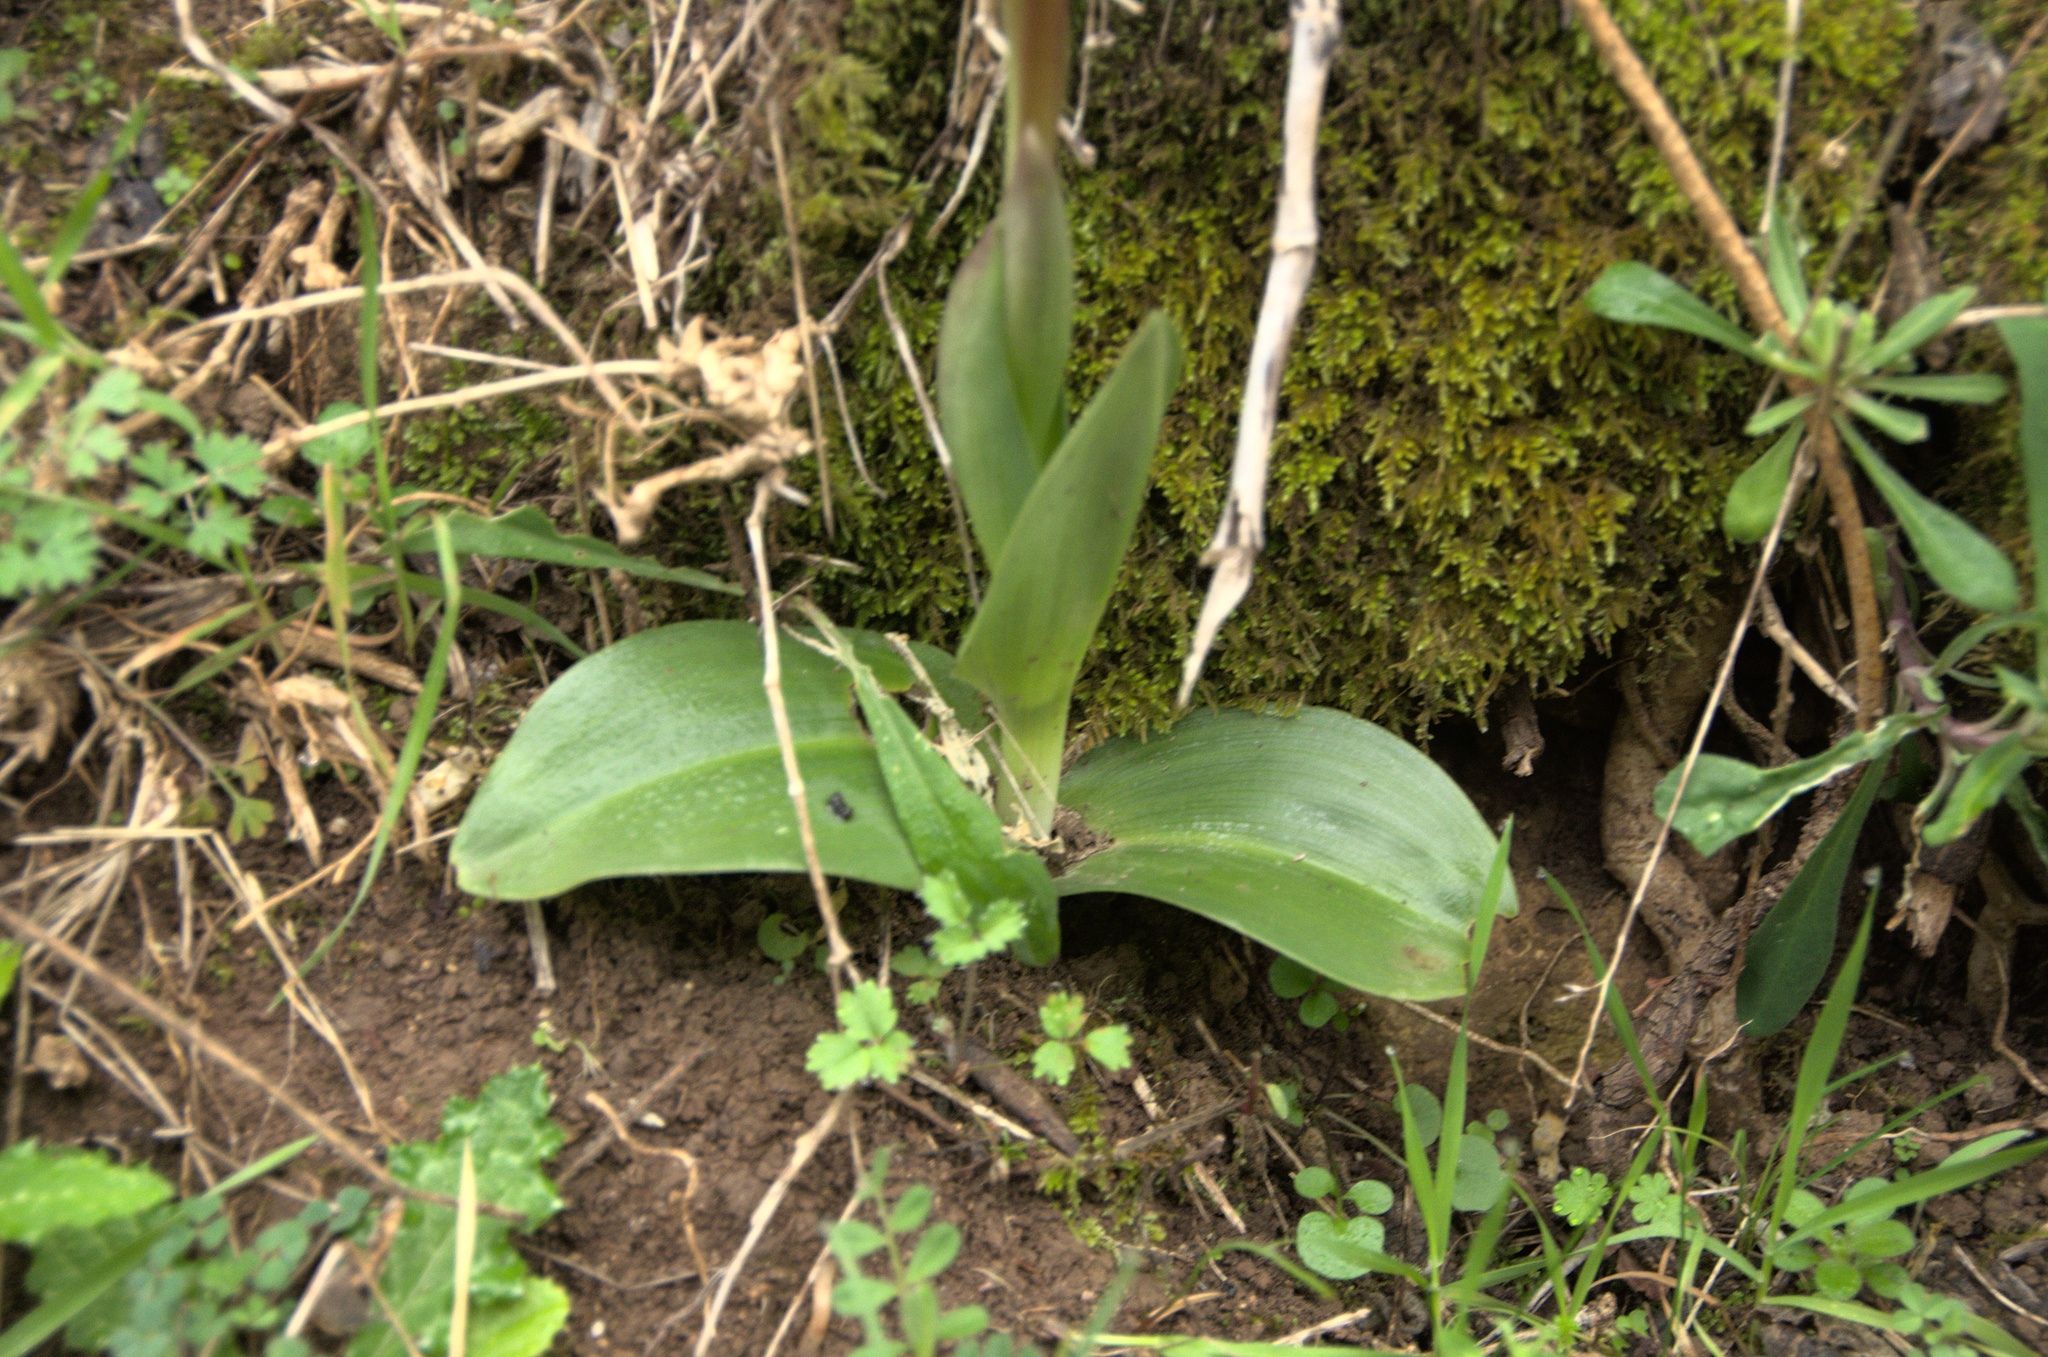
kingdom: Plantae
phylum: Tracheophyta
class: Liliopsida
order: Asparagales
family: Orchidaceae
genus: Himantoglossum
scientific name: Himantoglossum robertianum
